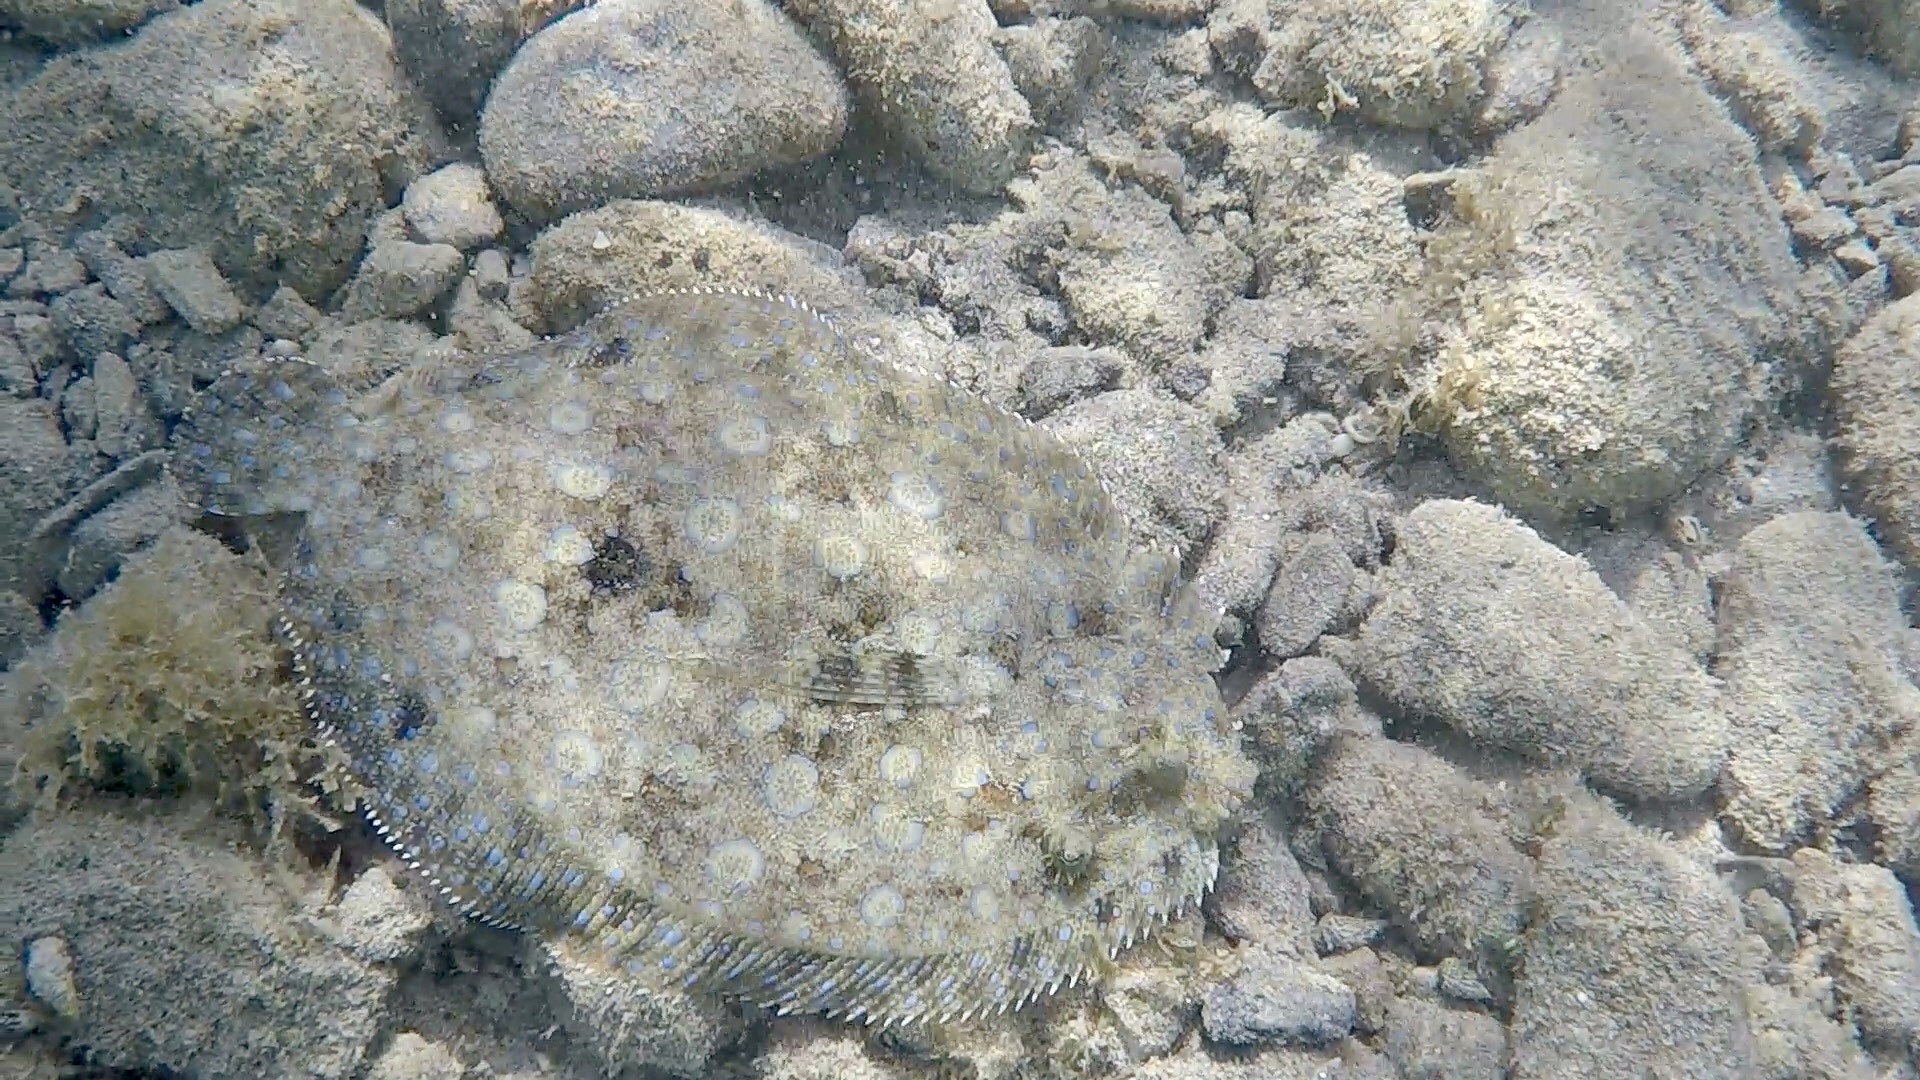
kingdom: Animalia
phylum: Chordata
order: Pleuronectiformes
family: Bothidae
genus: Bothus
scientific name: Bothus lunatus
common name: Peacock flounder
